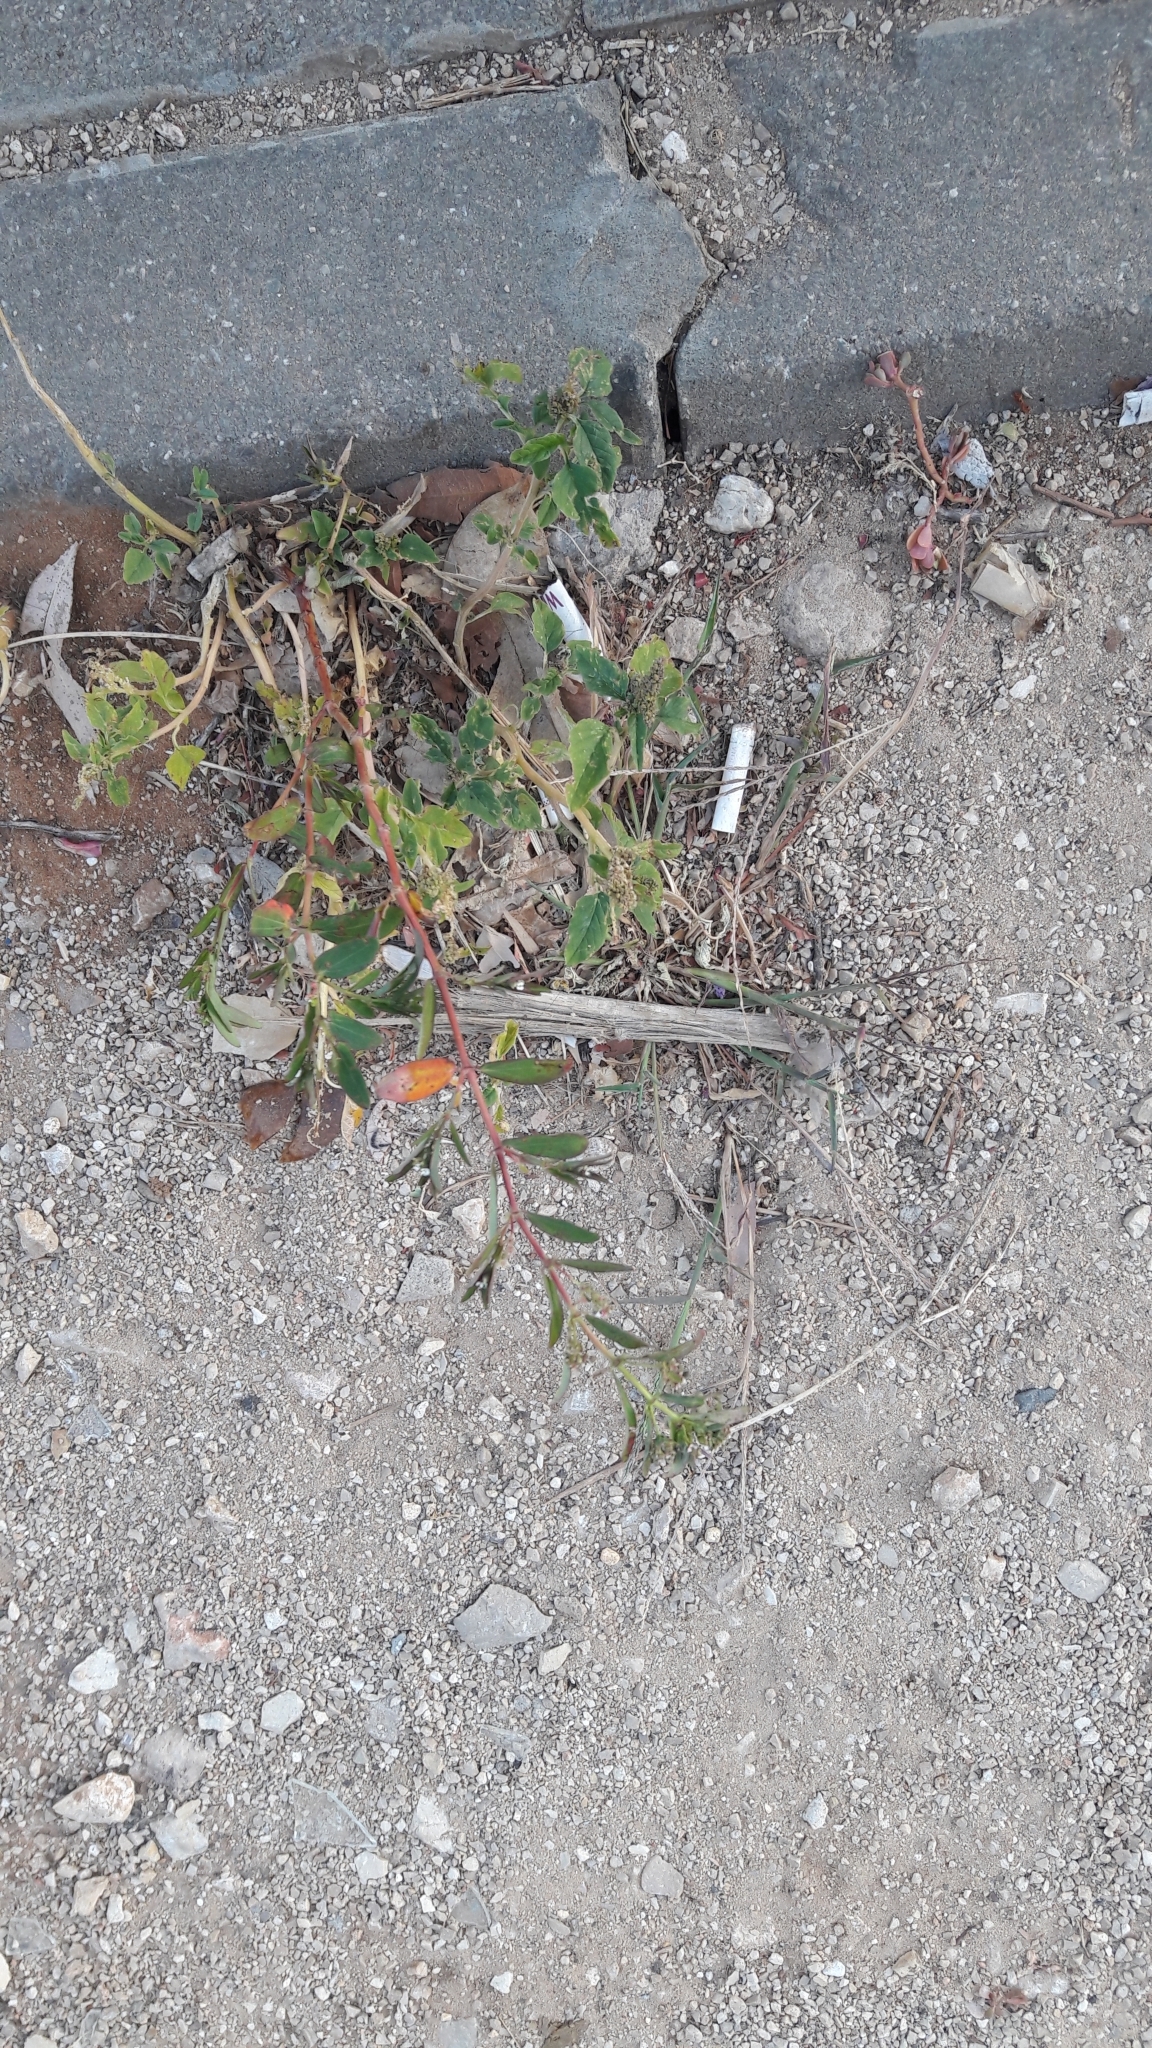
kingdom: Plantae
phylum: Tracheophyta
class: Magnoliopsida
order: Malpighiales
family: Euphorbiaceae
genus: Euphorbia
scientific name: Euphorbia hypericifolia
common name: Graceful sandmat
